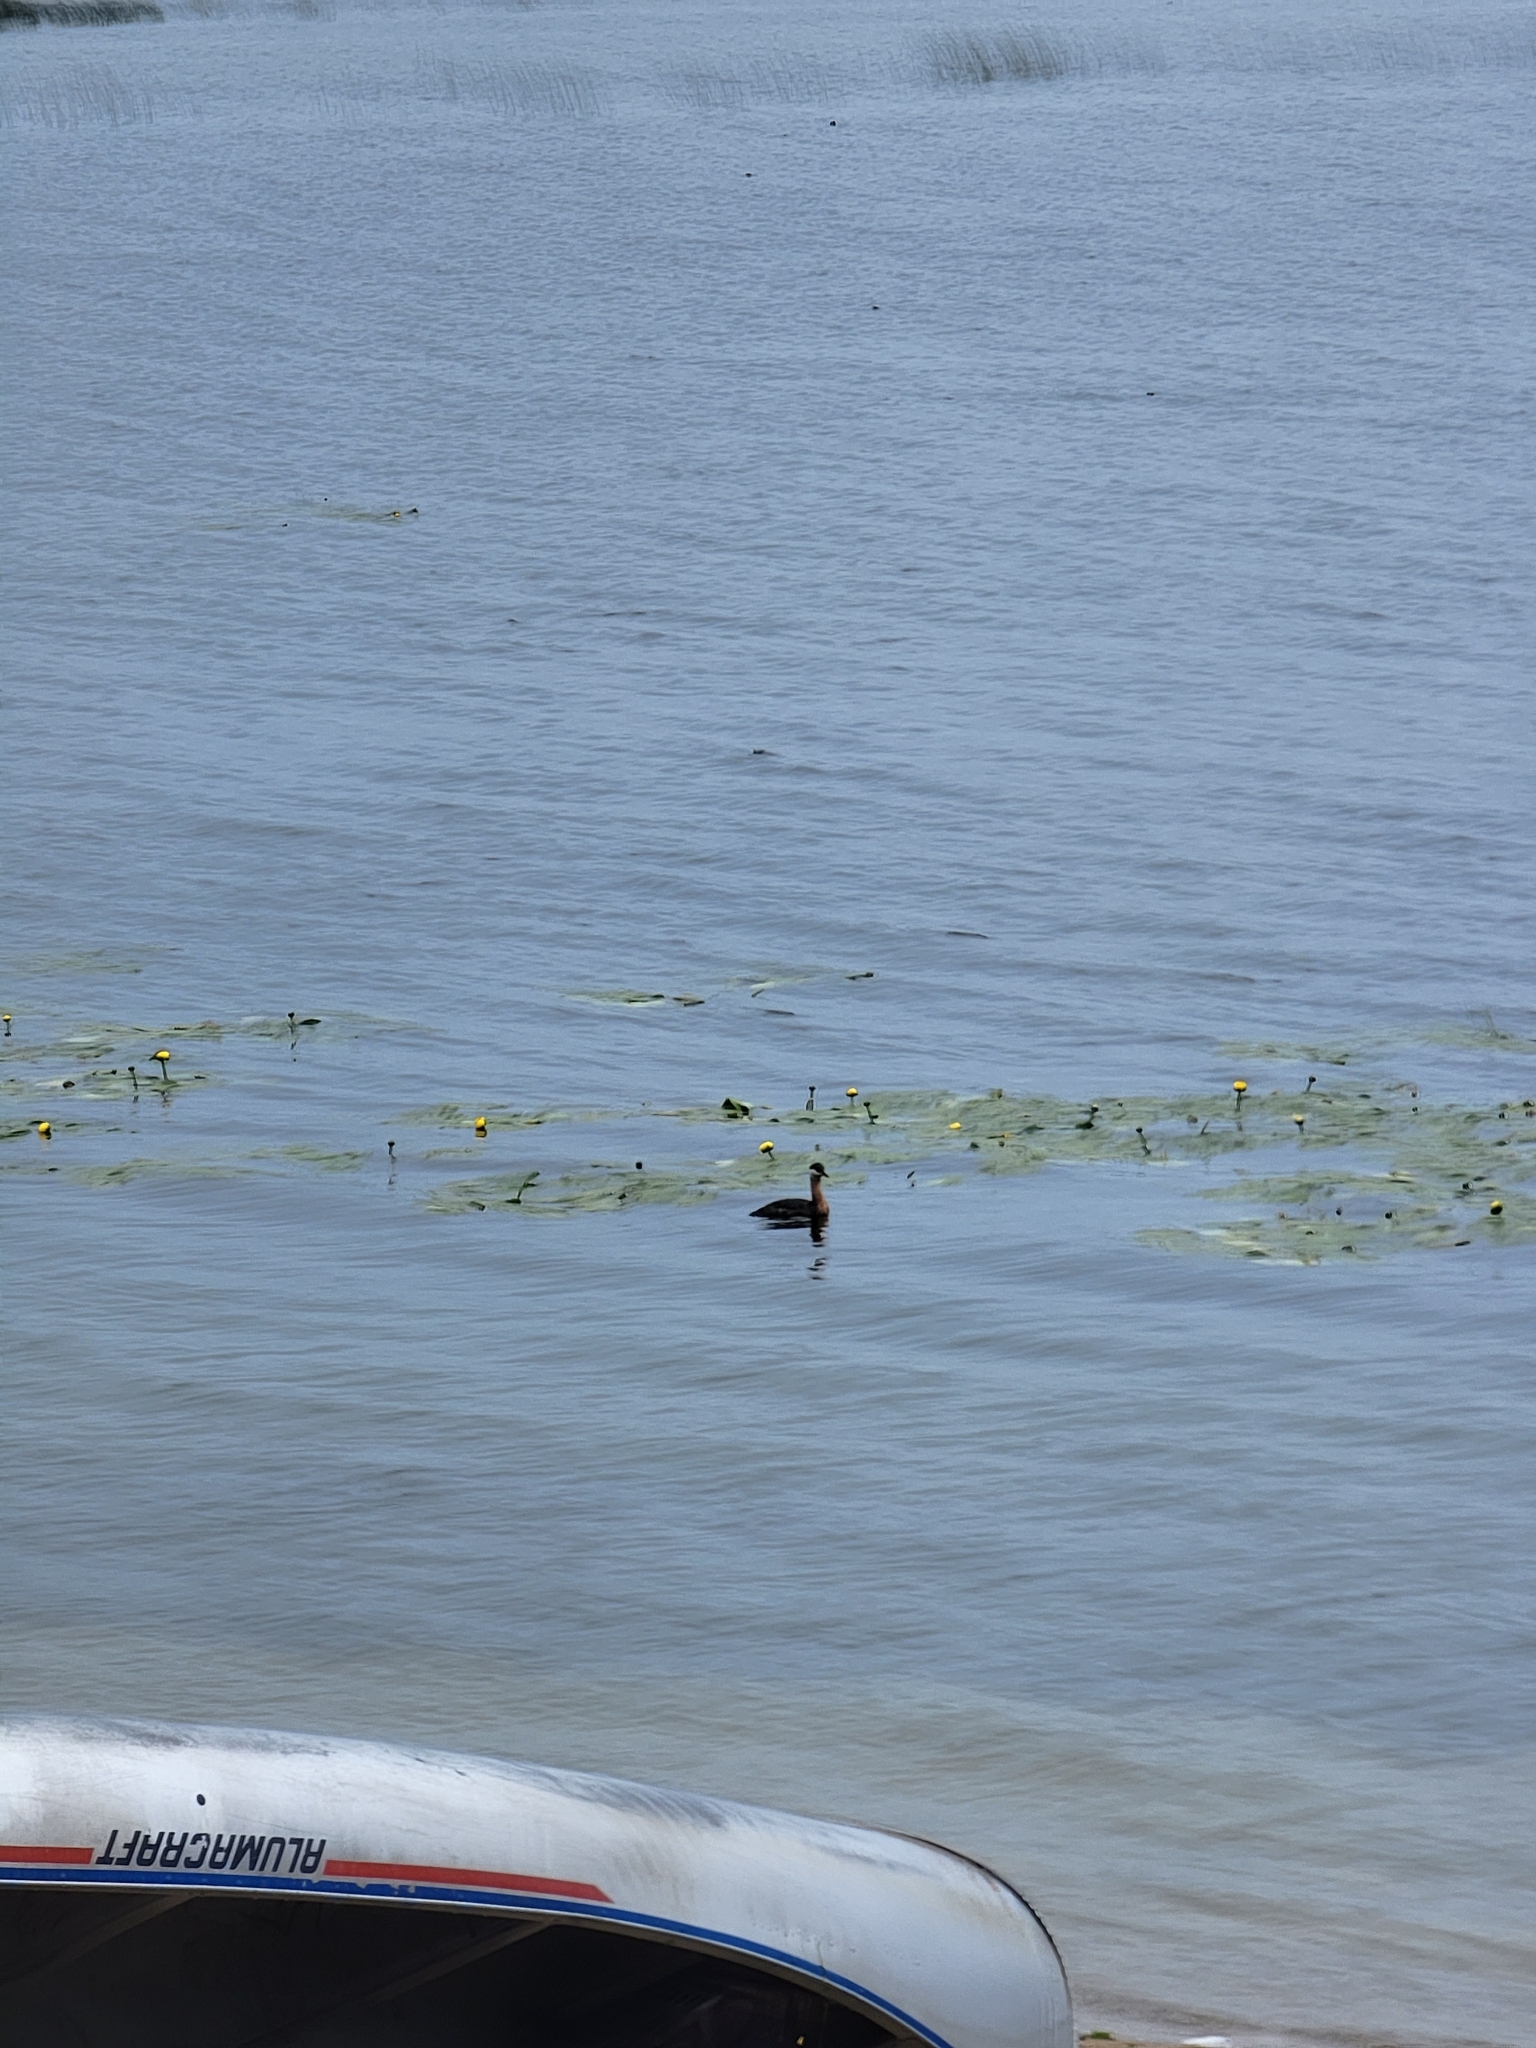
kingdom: Animalia
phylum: Chordata
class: Aves
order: Podicipediformes
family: Podicipedidae
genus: Podiceps
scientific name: Podiceps grisegena
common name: Red-necked grebe
